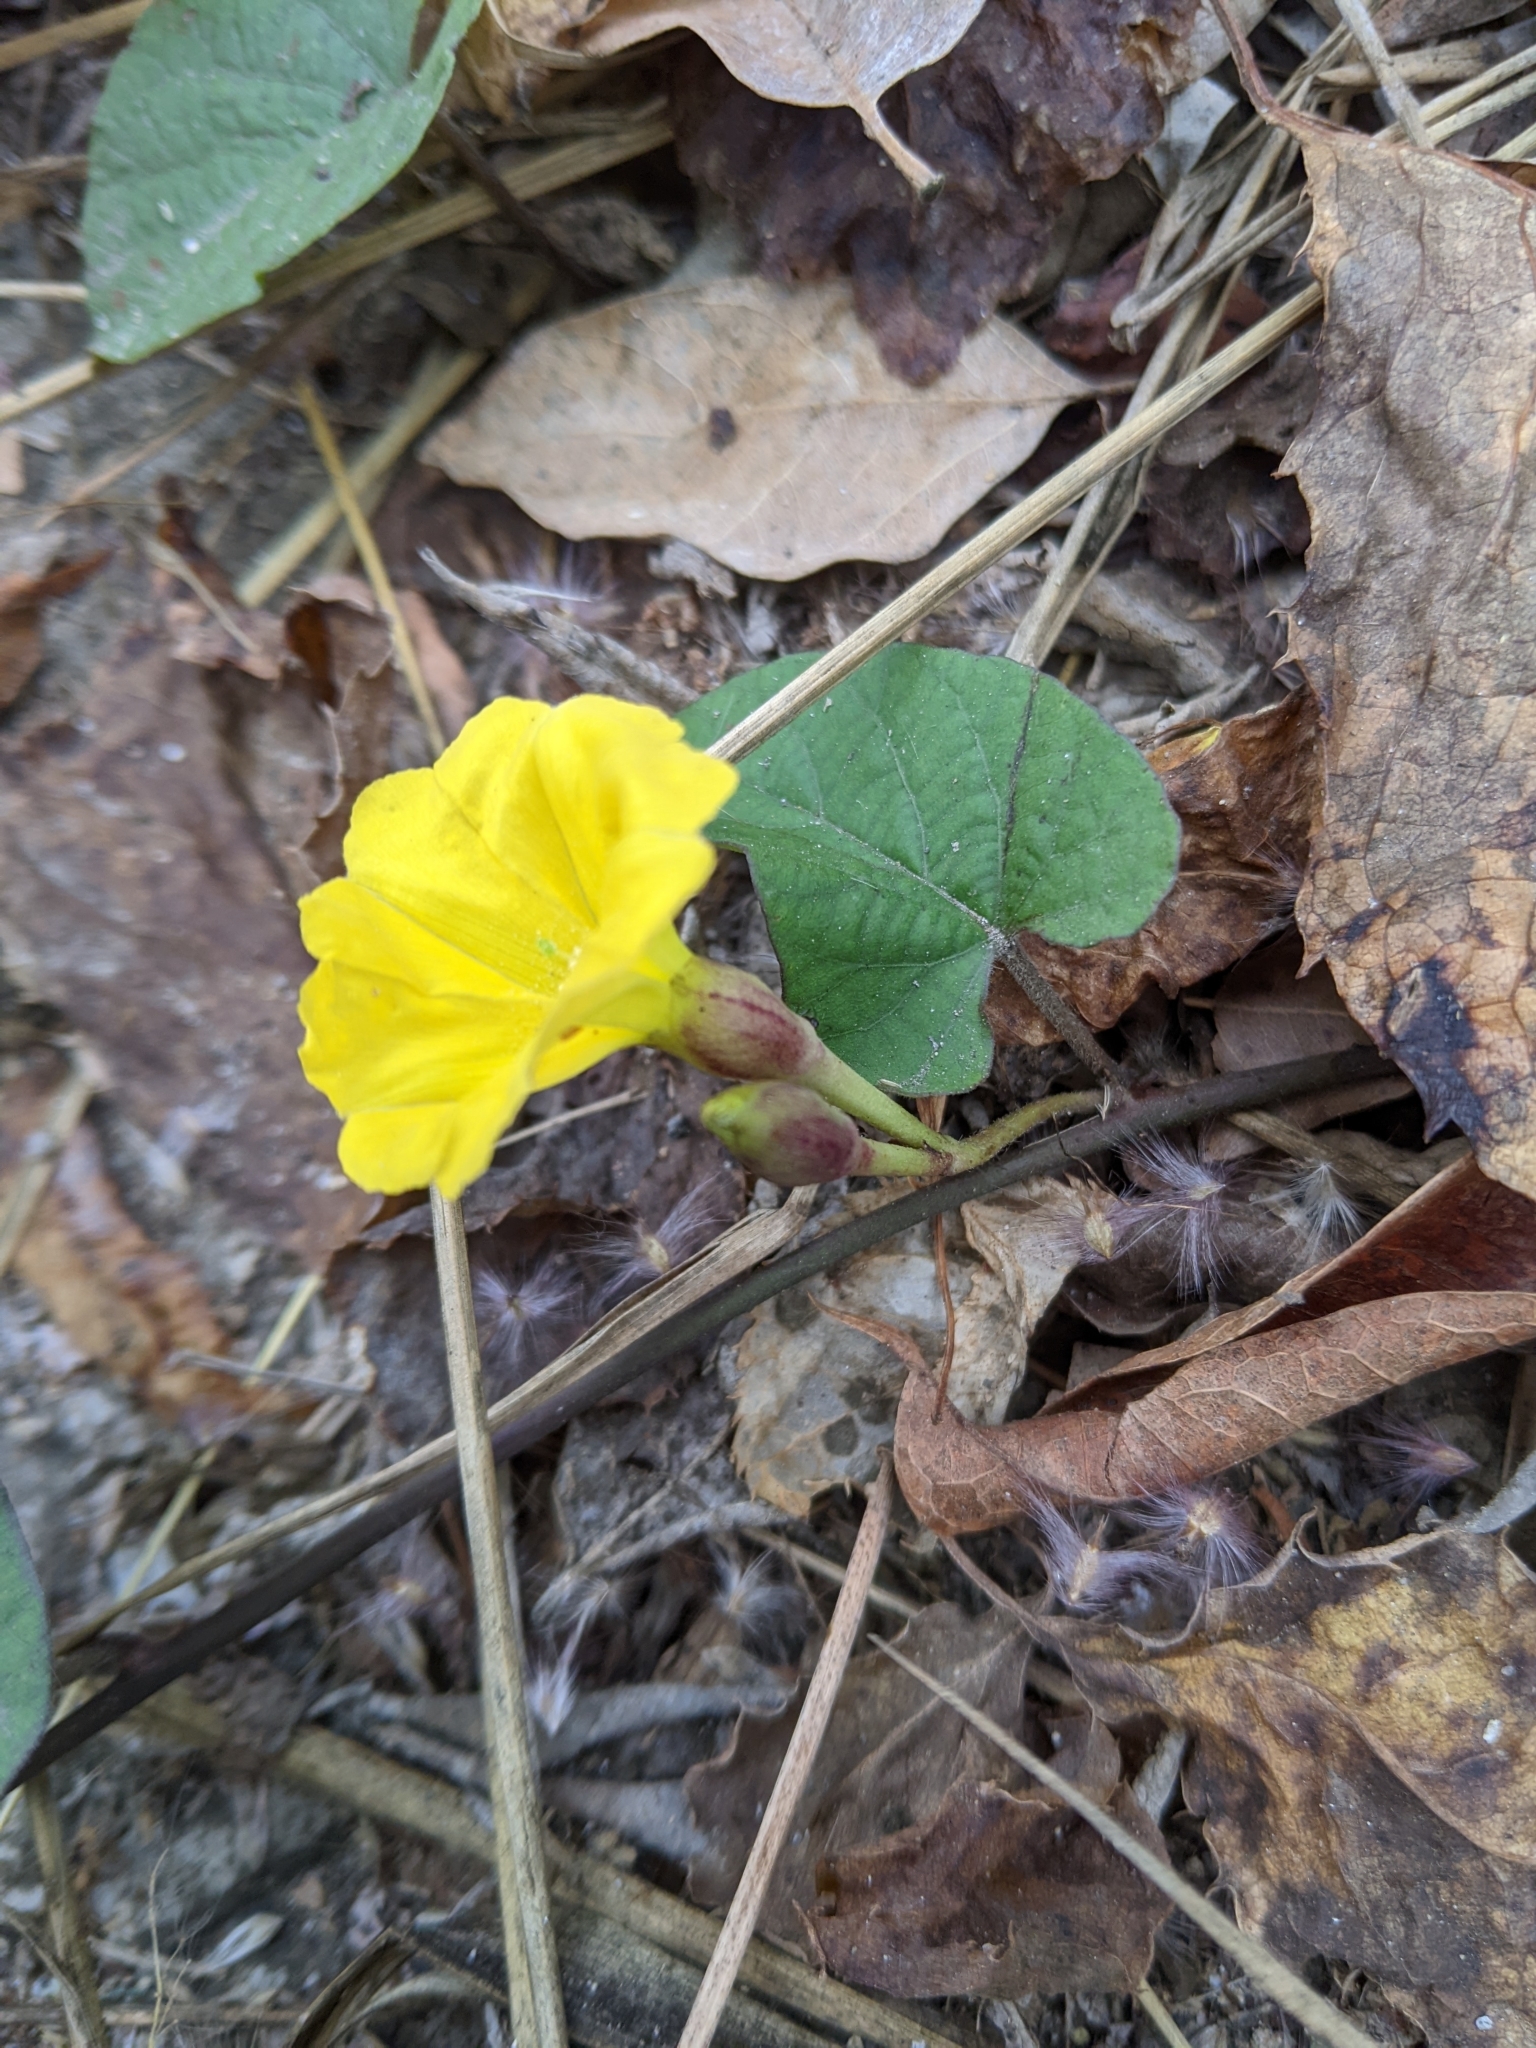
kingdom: Plantae
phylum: Tracheophyta
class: Magnoliopsida
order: Solanales
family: Convolvulaceae
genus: Camonea
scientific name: Camonea umbellata
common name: Hogvine
